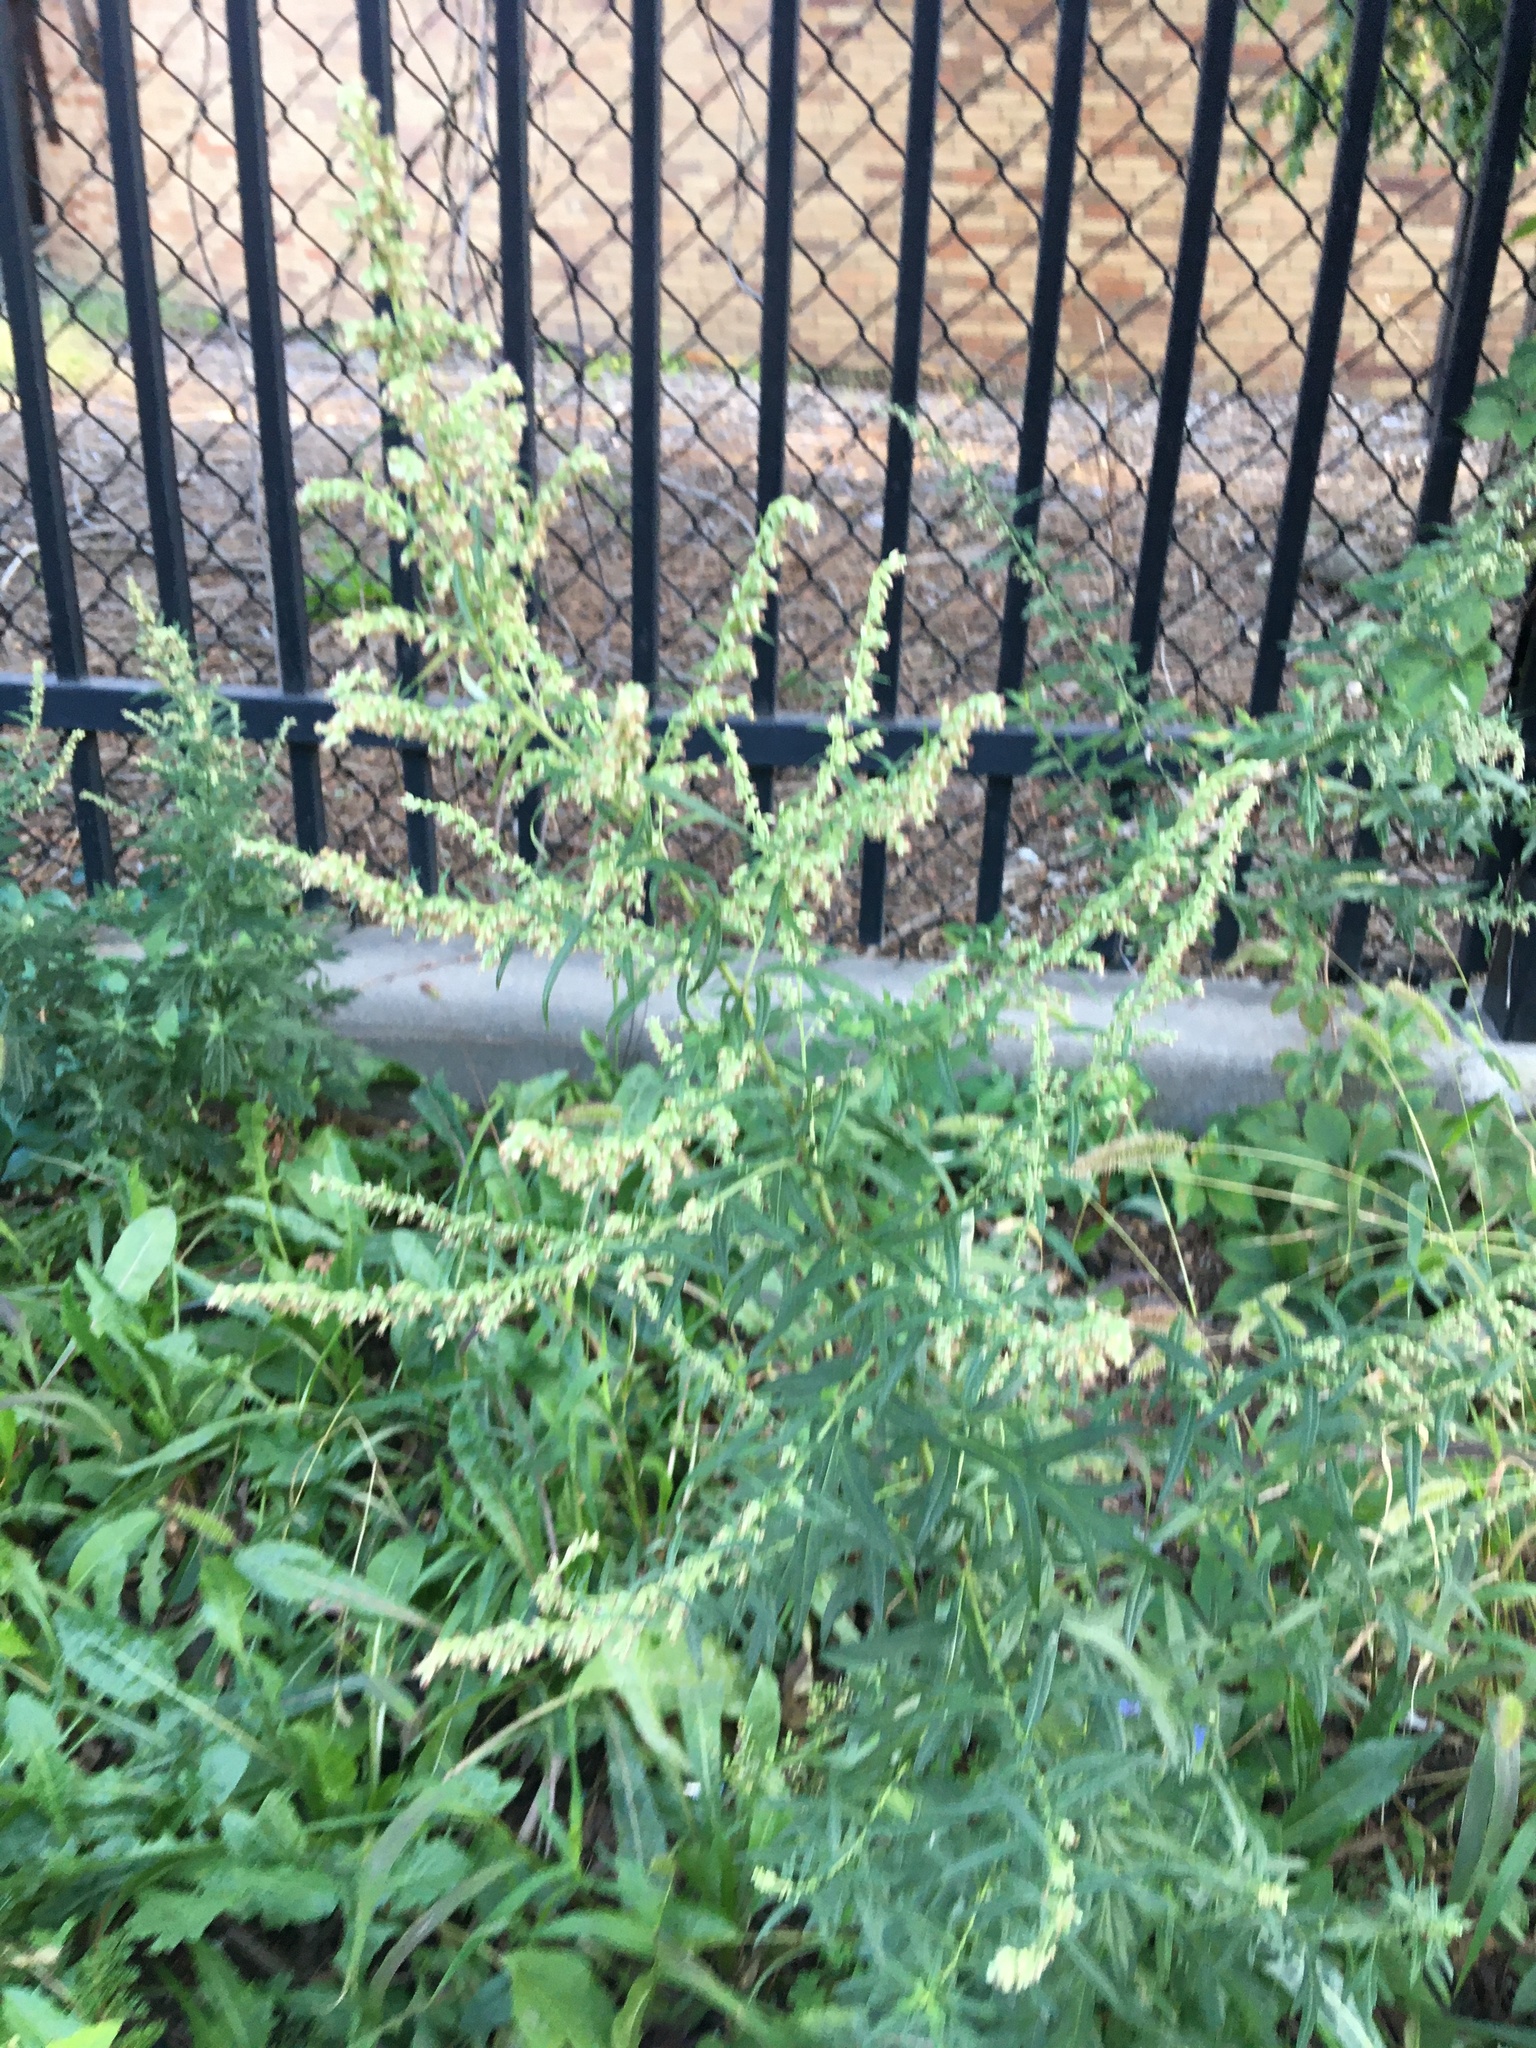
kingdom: Plantae
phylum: Tracheophyta
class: Magnoliopsida
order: Asterales
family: Asteraceae
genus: Artemisia
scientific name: Artemisia vulgaris
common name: Mugwort
